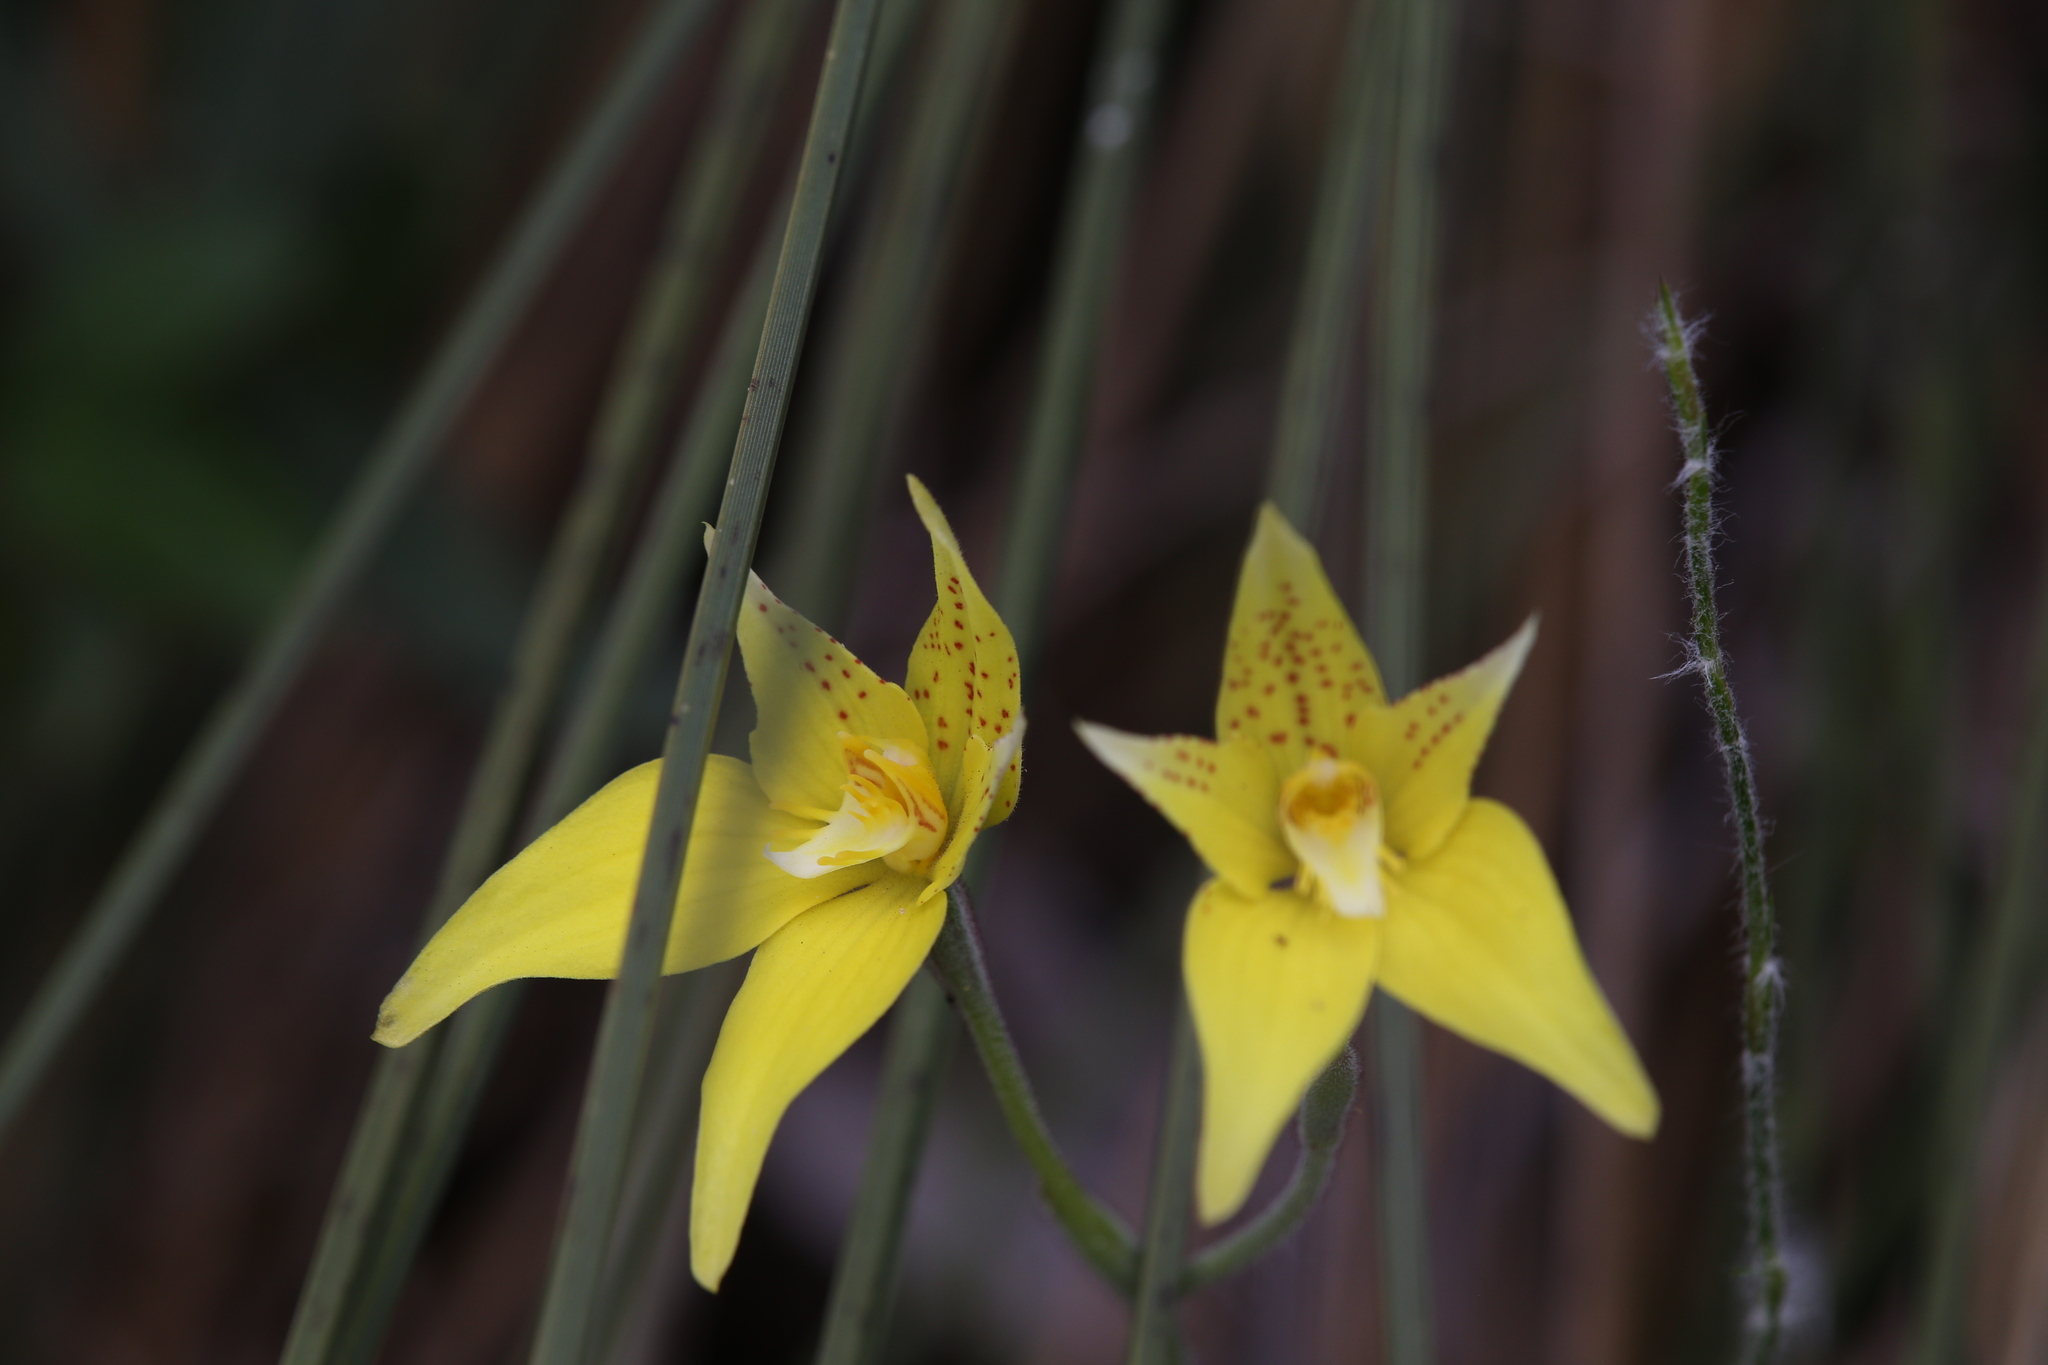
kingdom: Plantae
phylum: Tracheophyta
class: Liliopsida
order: Asparagales
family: Orchidaceae
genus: Caladenia
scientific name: Caladenia flava
